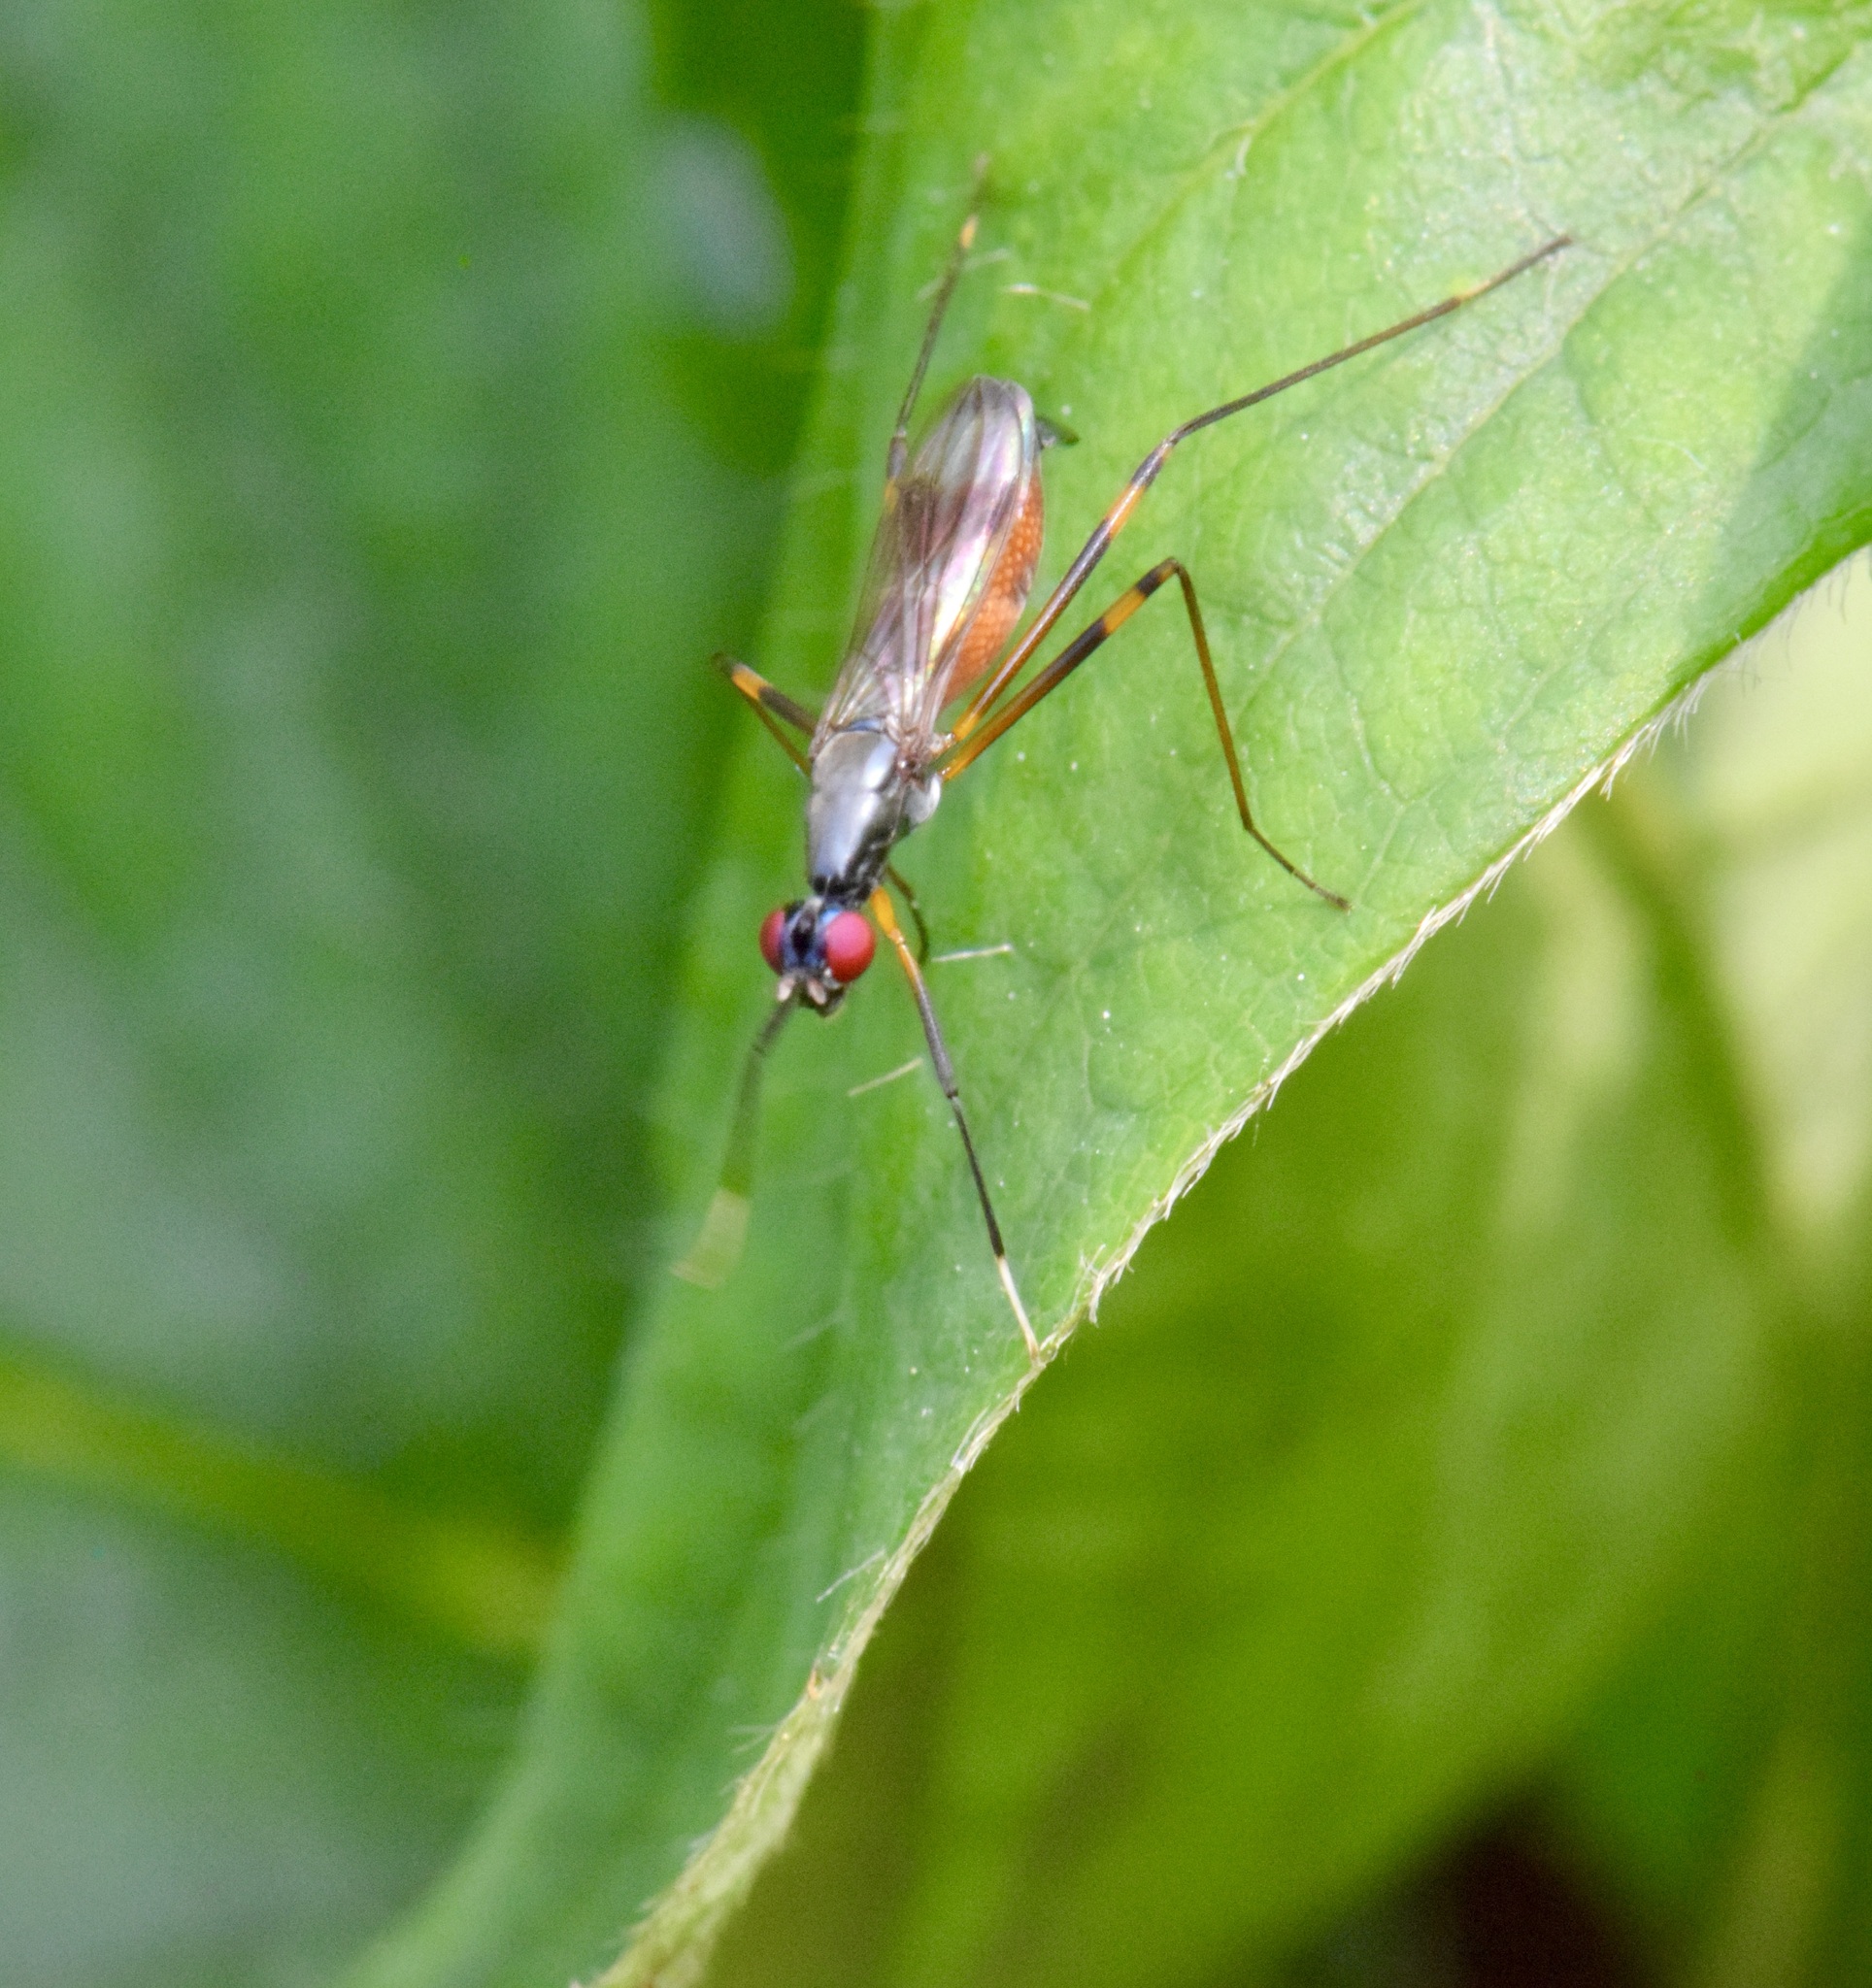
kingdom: Animalia
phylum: Arthropoda
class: Insecta
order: Diptera
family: Micropezidae
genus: Rainieria
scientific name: Rainieria antennaepes
